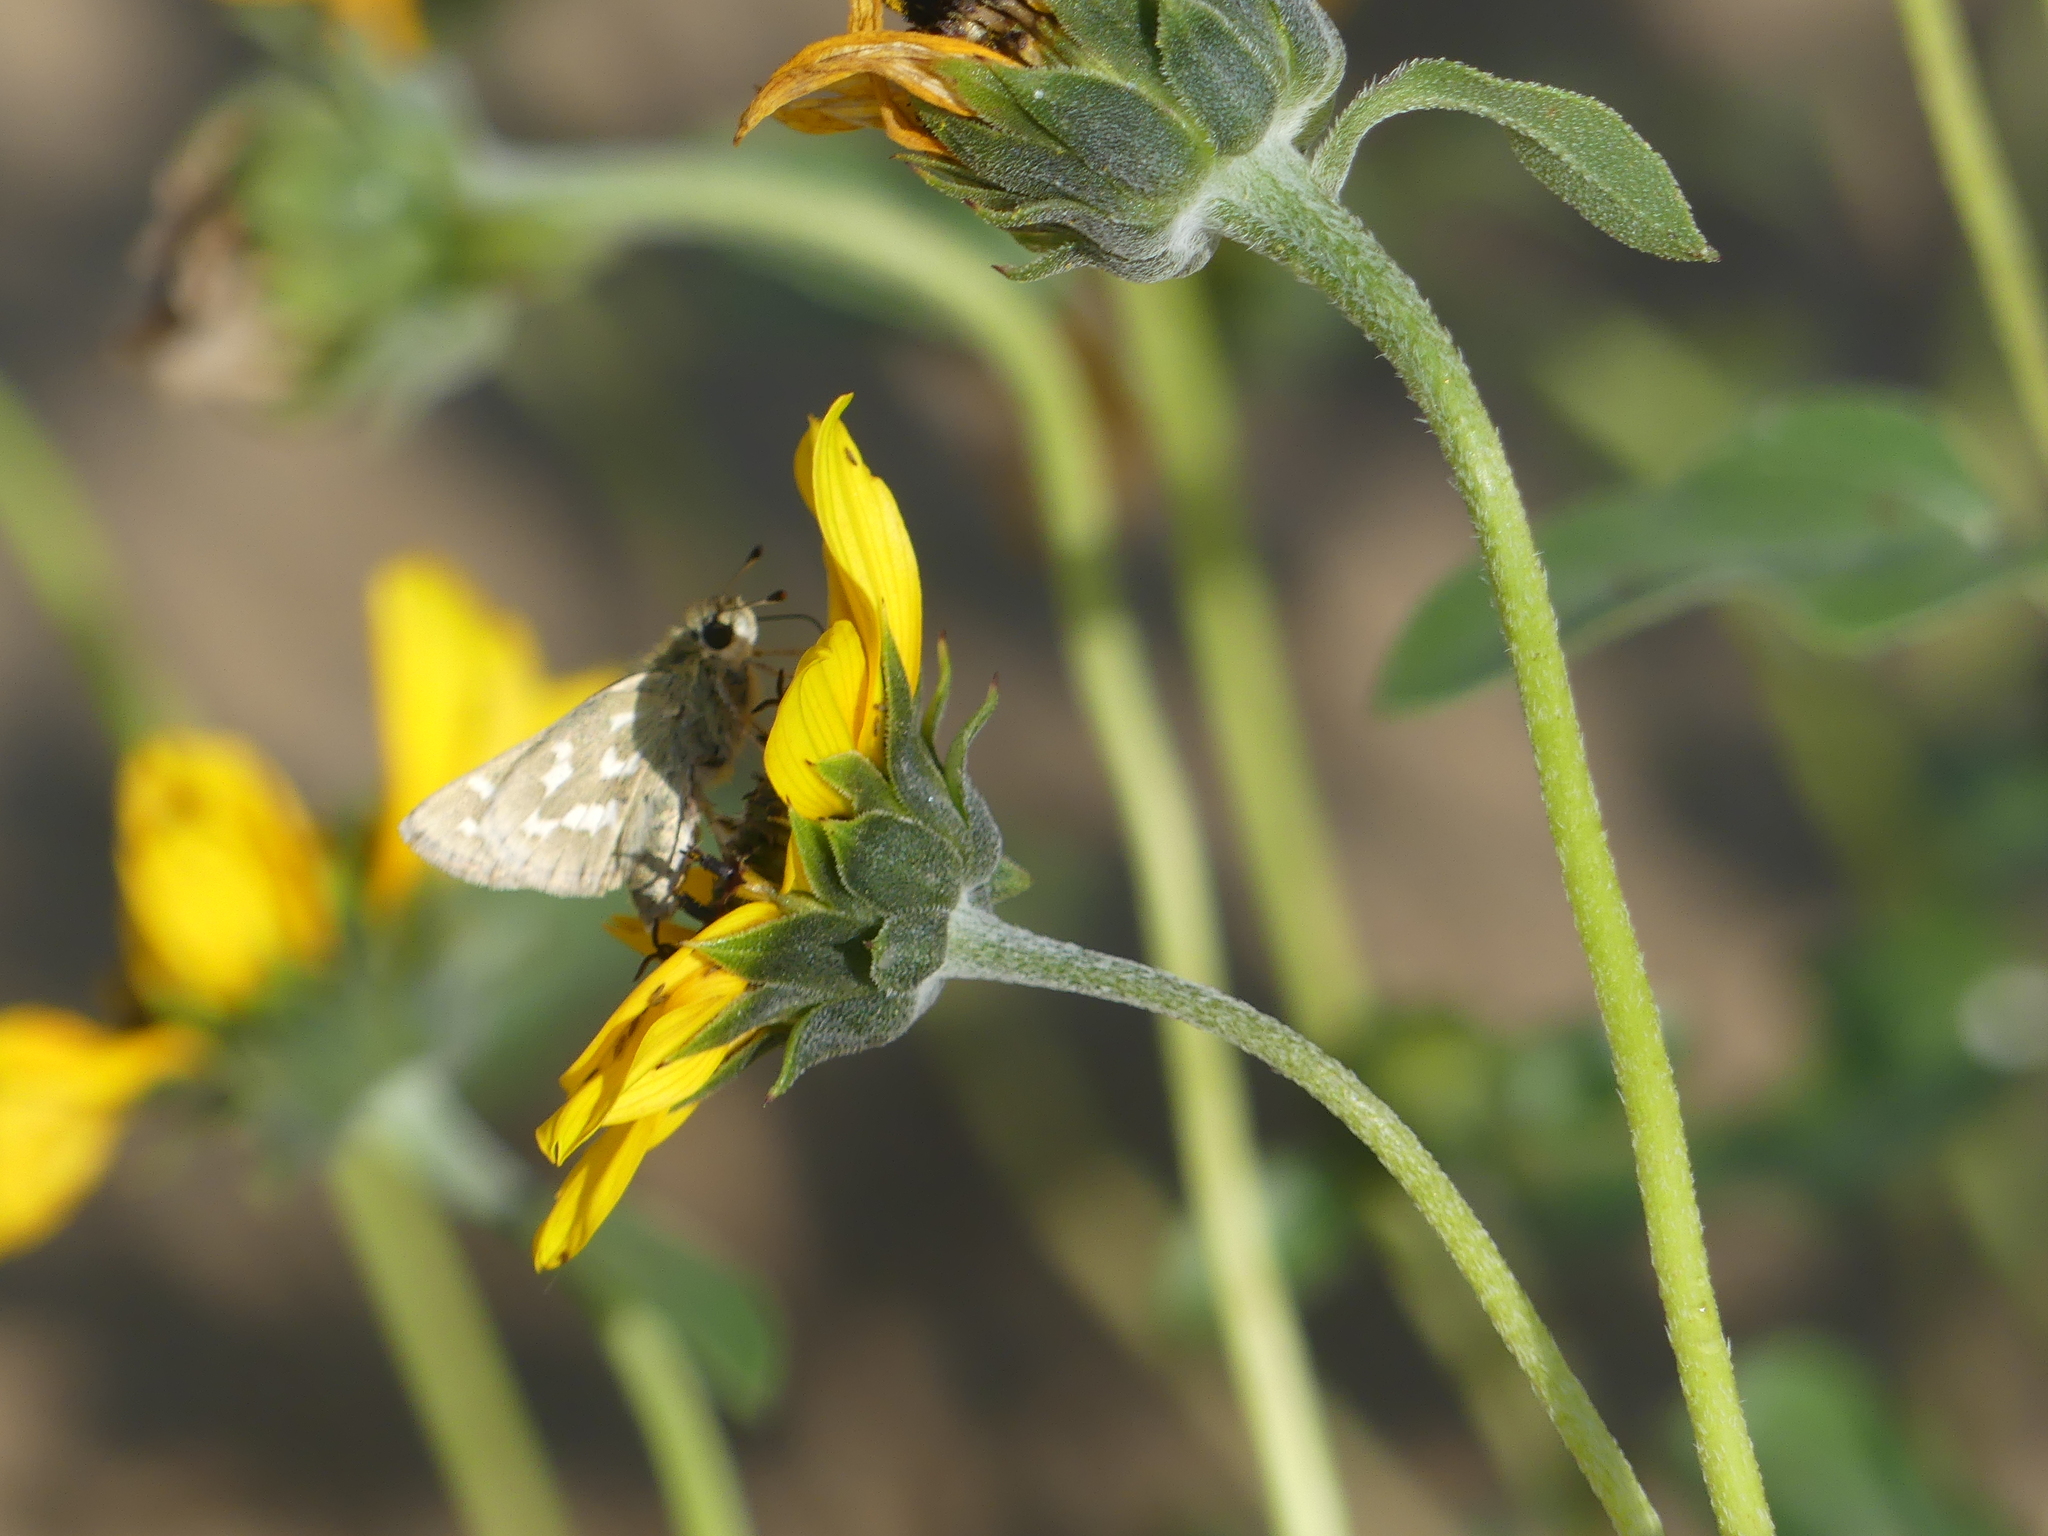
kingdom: Animalia
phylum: Arthropoda
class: Insecta
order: Lepidoptera
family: Hesperiidae
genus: Hesperia
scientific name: Hesperia comma
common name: Common branded skipper
